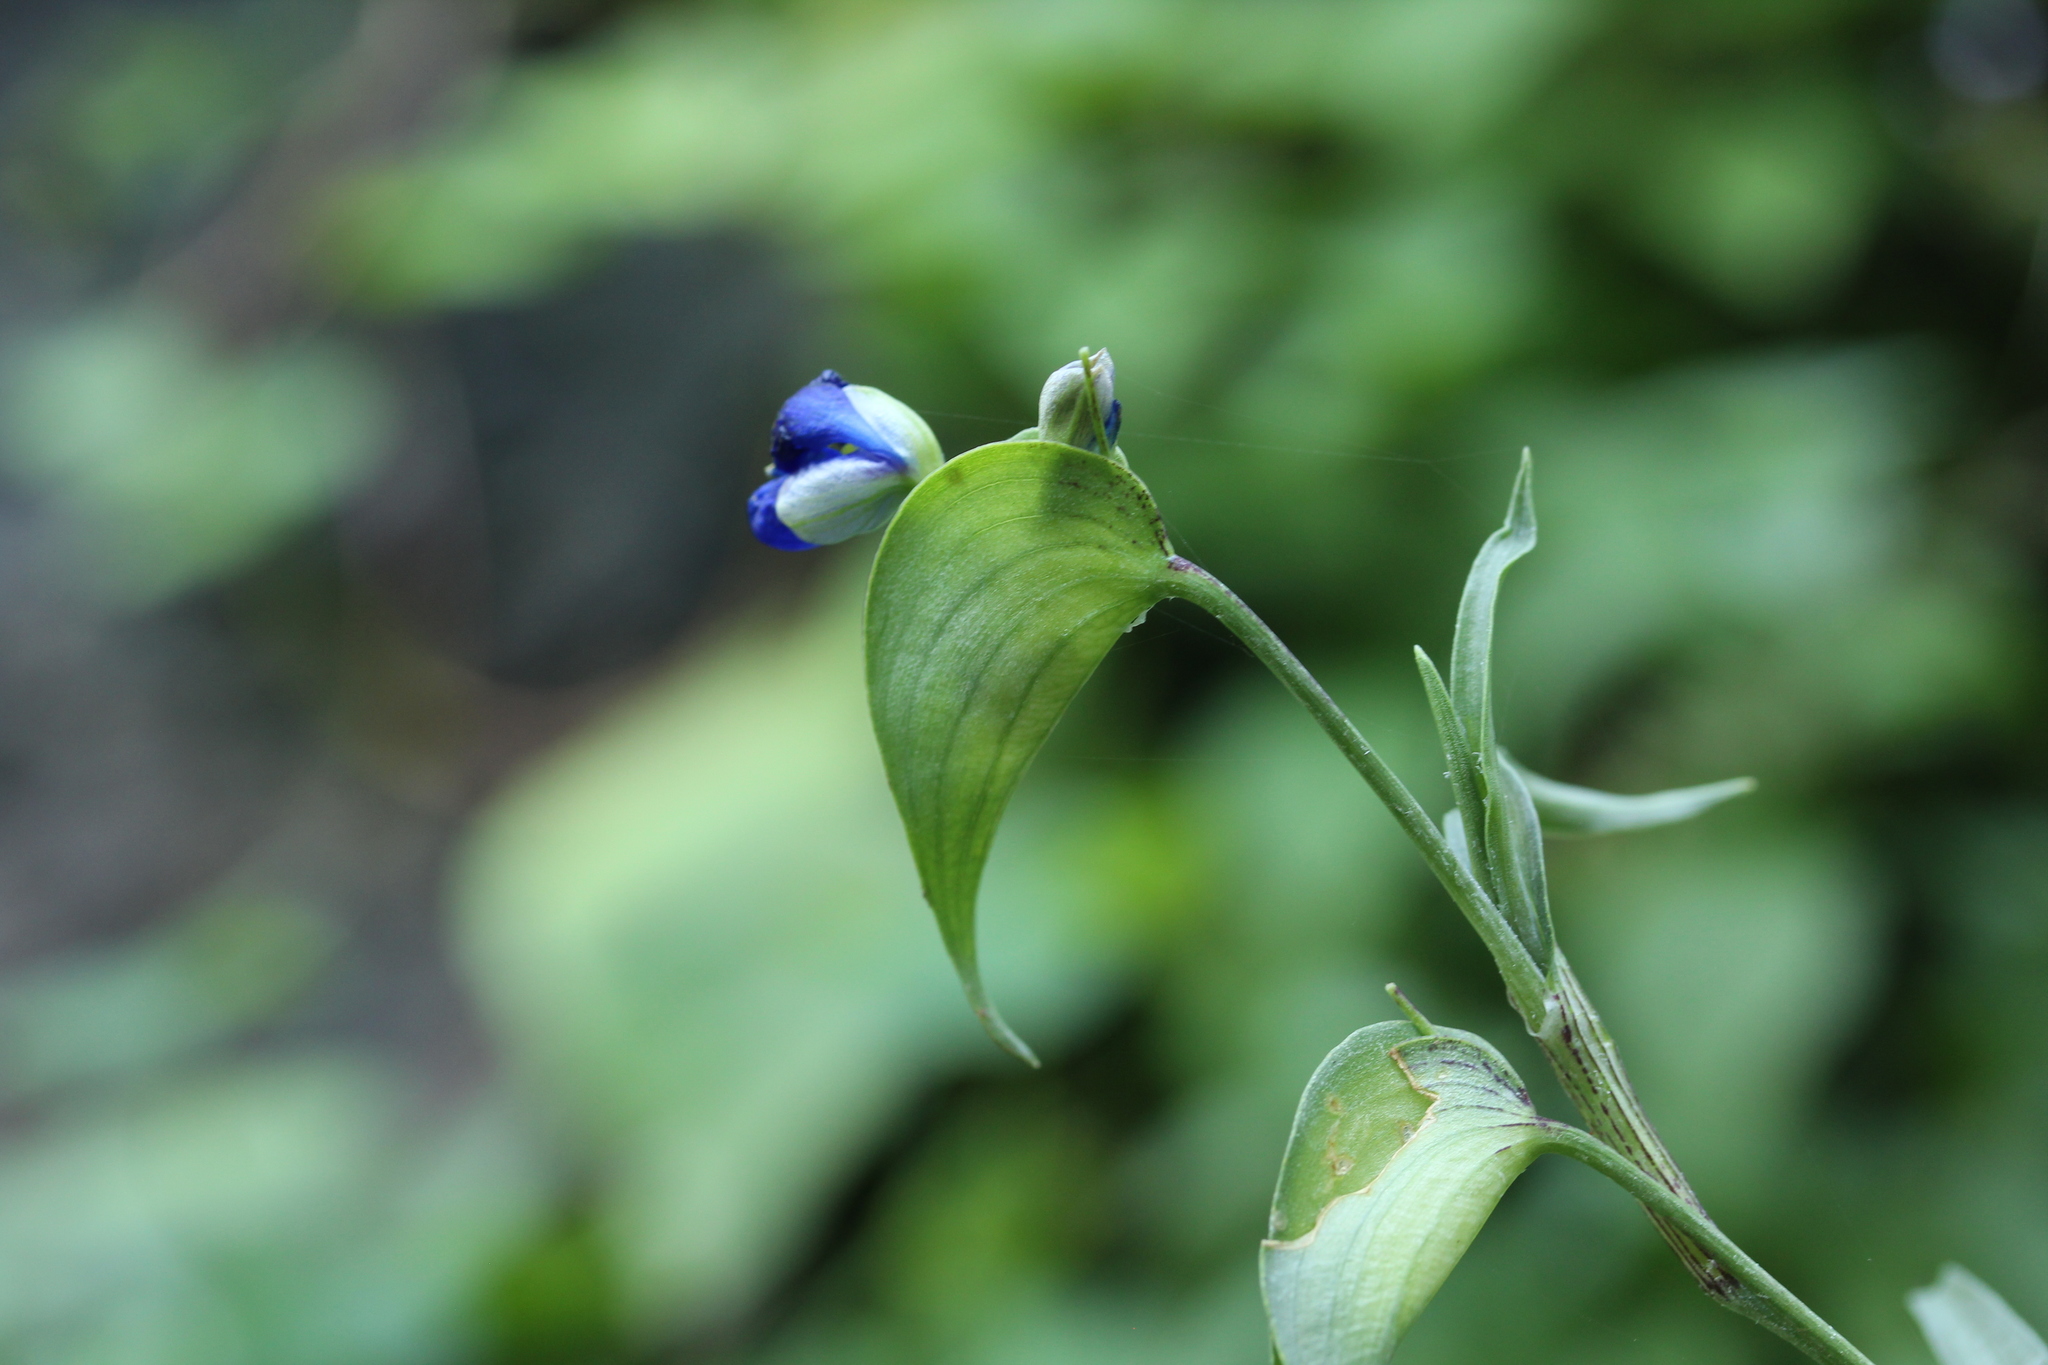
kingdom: Plantae
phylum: Tracheophyta
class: Liliopsida
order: Commelinales
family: Commelinaceae
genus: Commelina
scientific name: Commelina tuberosa
